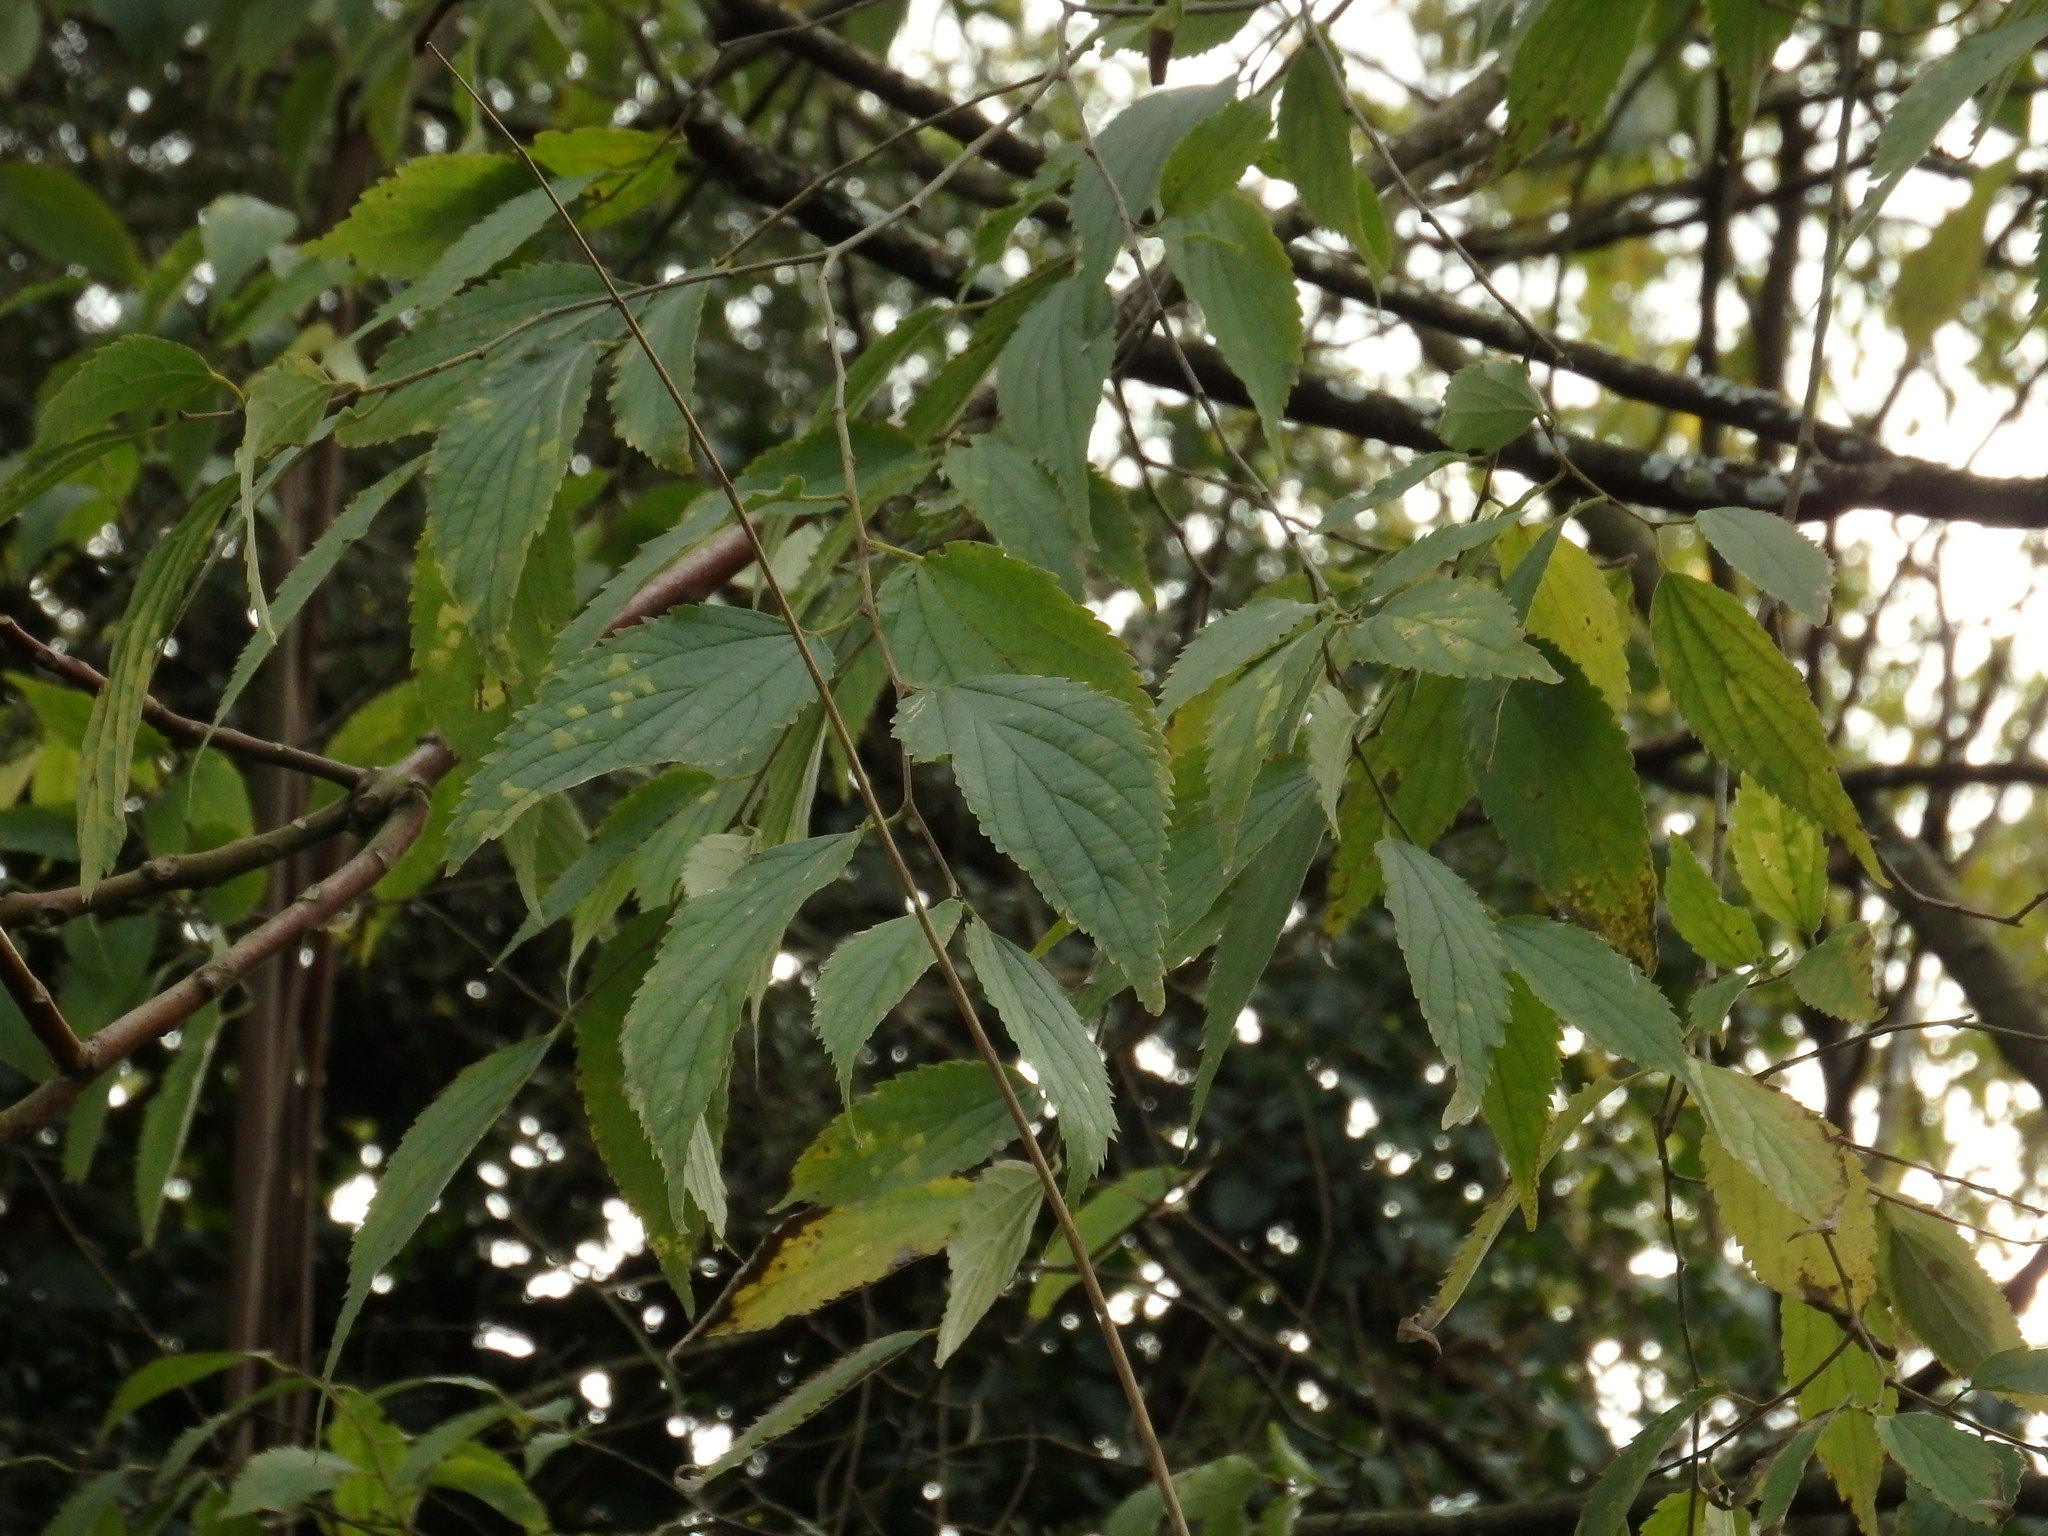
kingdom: Plantae
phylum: Tracheophyta
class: Magnoliopsida
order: Rosales
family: Cannabaceae
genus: Celtis
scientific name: Celtis australis
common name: European hackberry
